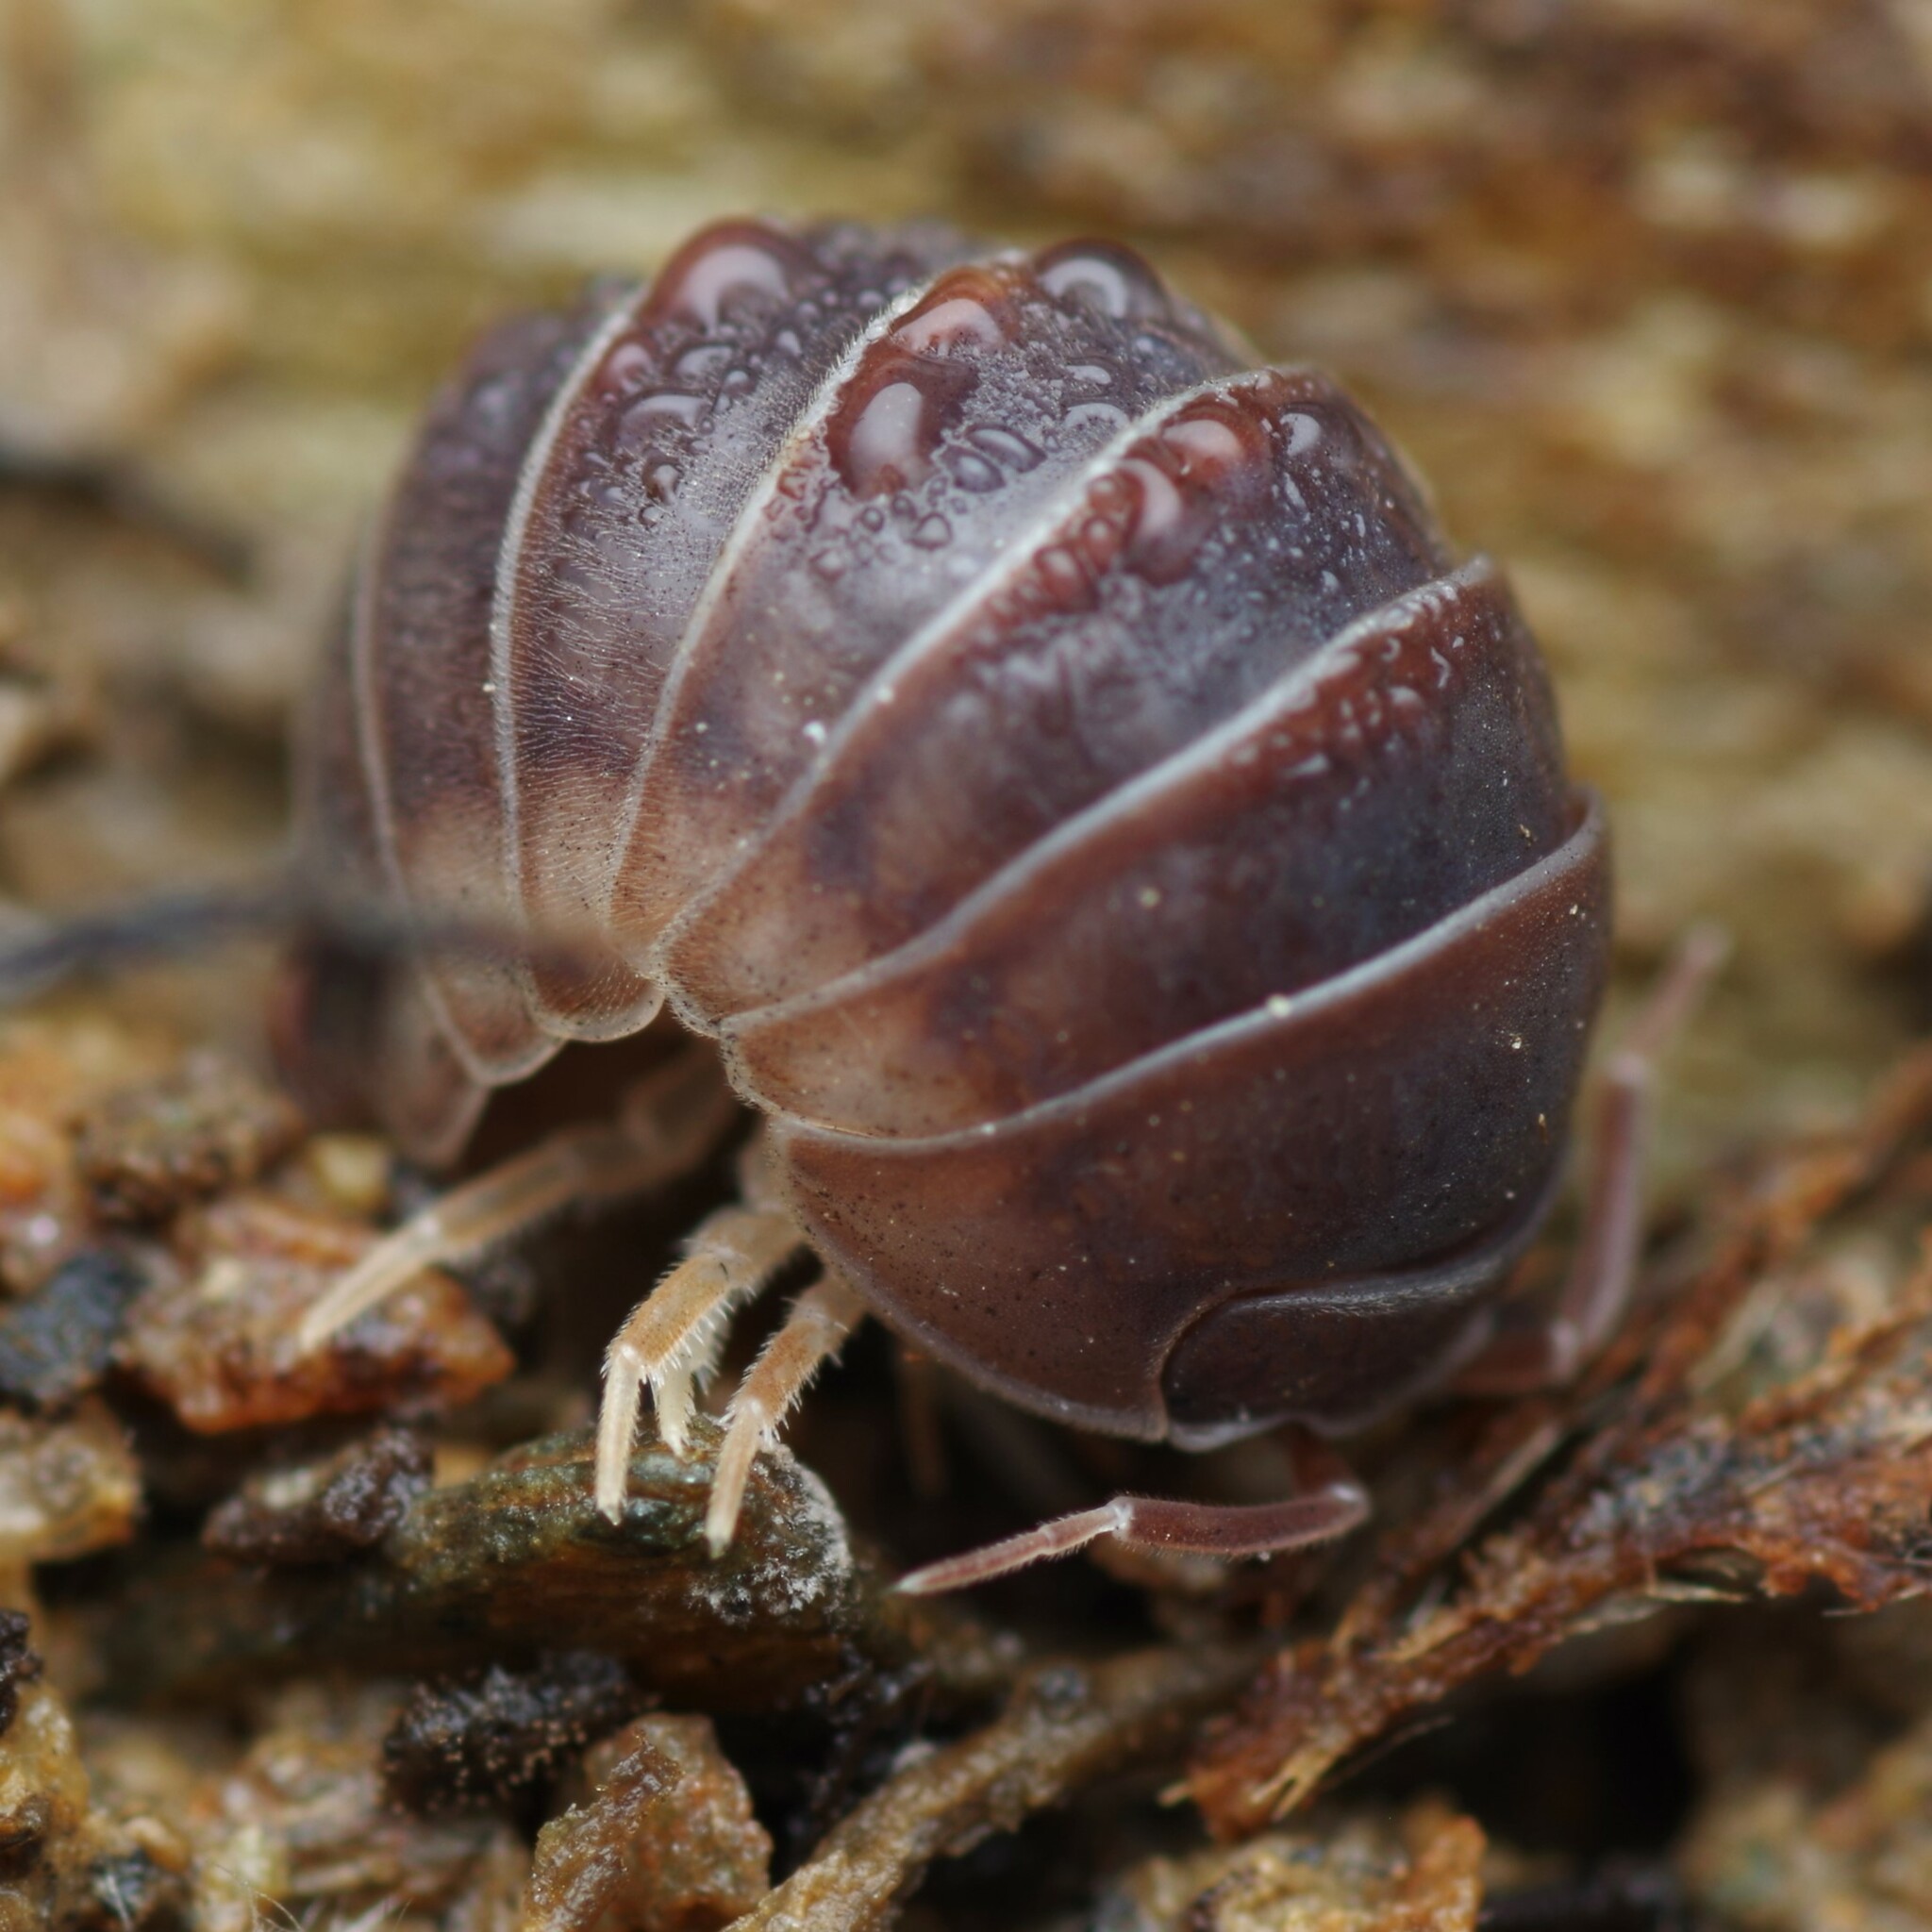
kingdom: Animalia
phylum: Arthropoda
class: Malacostraca
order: Isopoda
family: Armadillidiidae
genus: Eluma
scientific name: Eluma caelata
